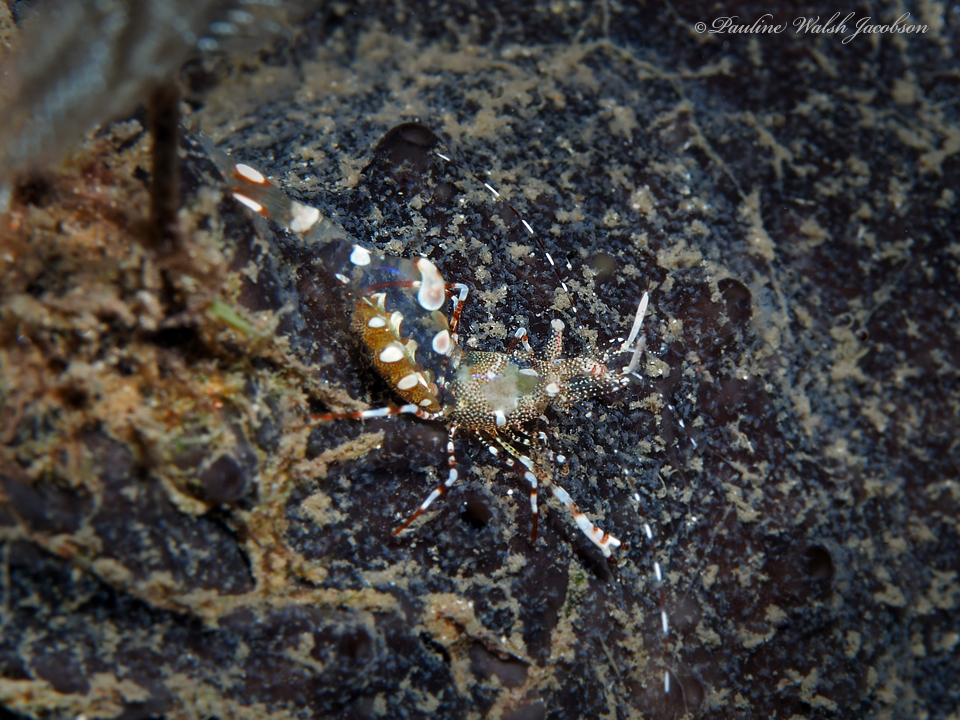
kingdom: Animalia
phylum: Arthropoda
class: Malacostraca
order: Decapoda
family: Palaemonidae
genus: Periclimenes
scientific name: Periclimenes yucatanicus
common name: Spotted cleaning shrimp
